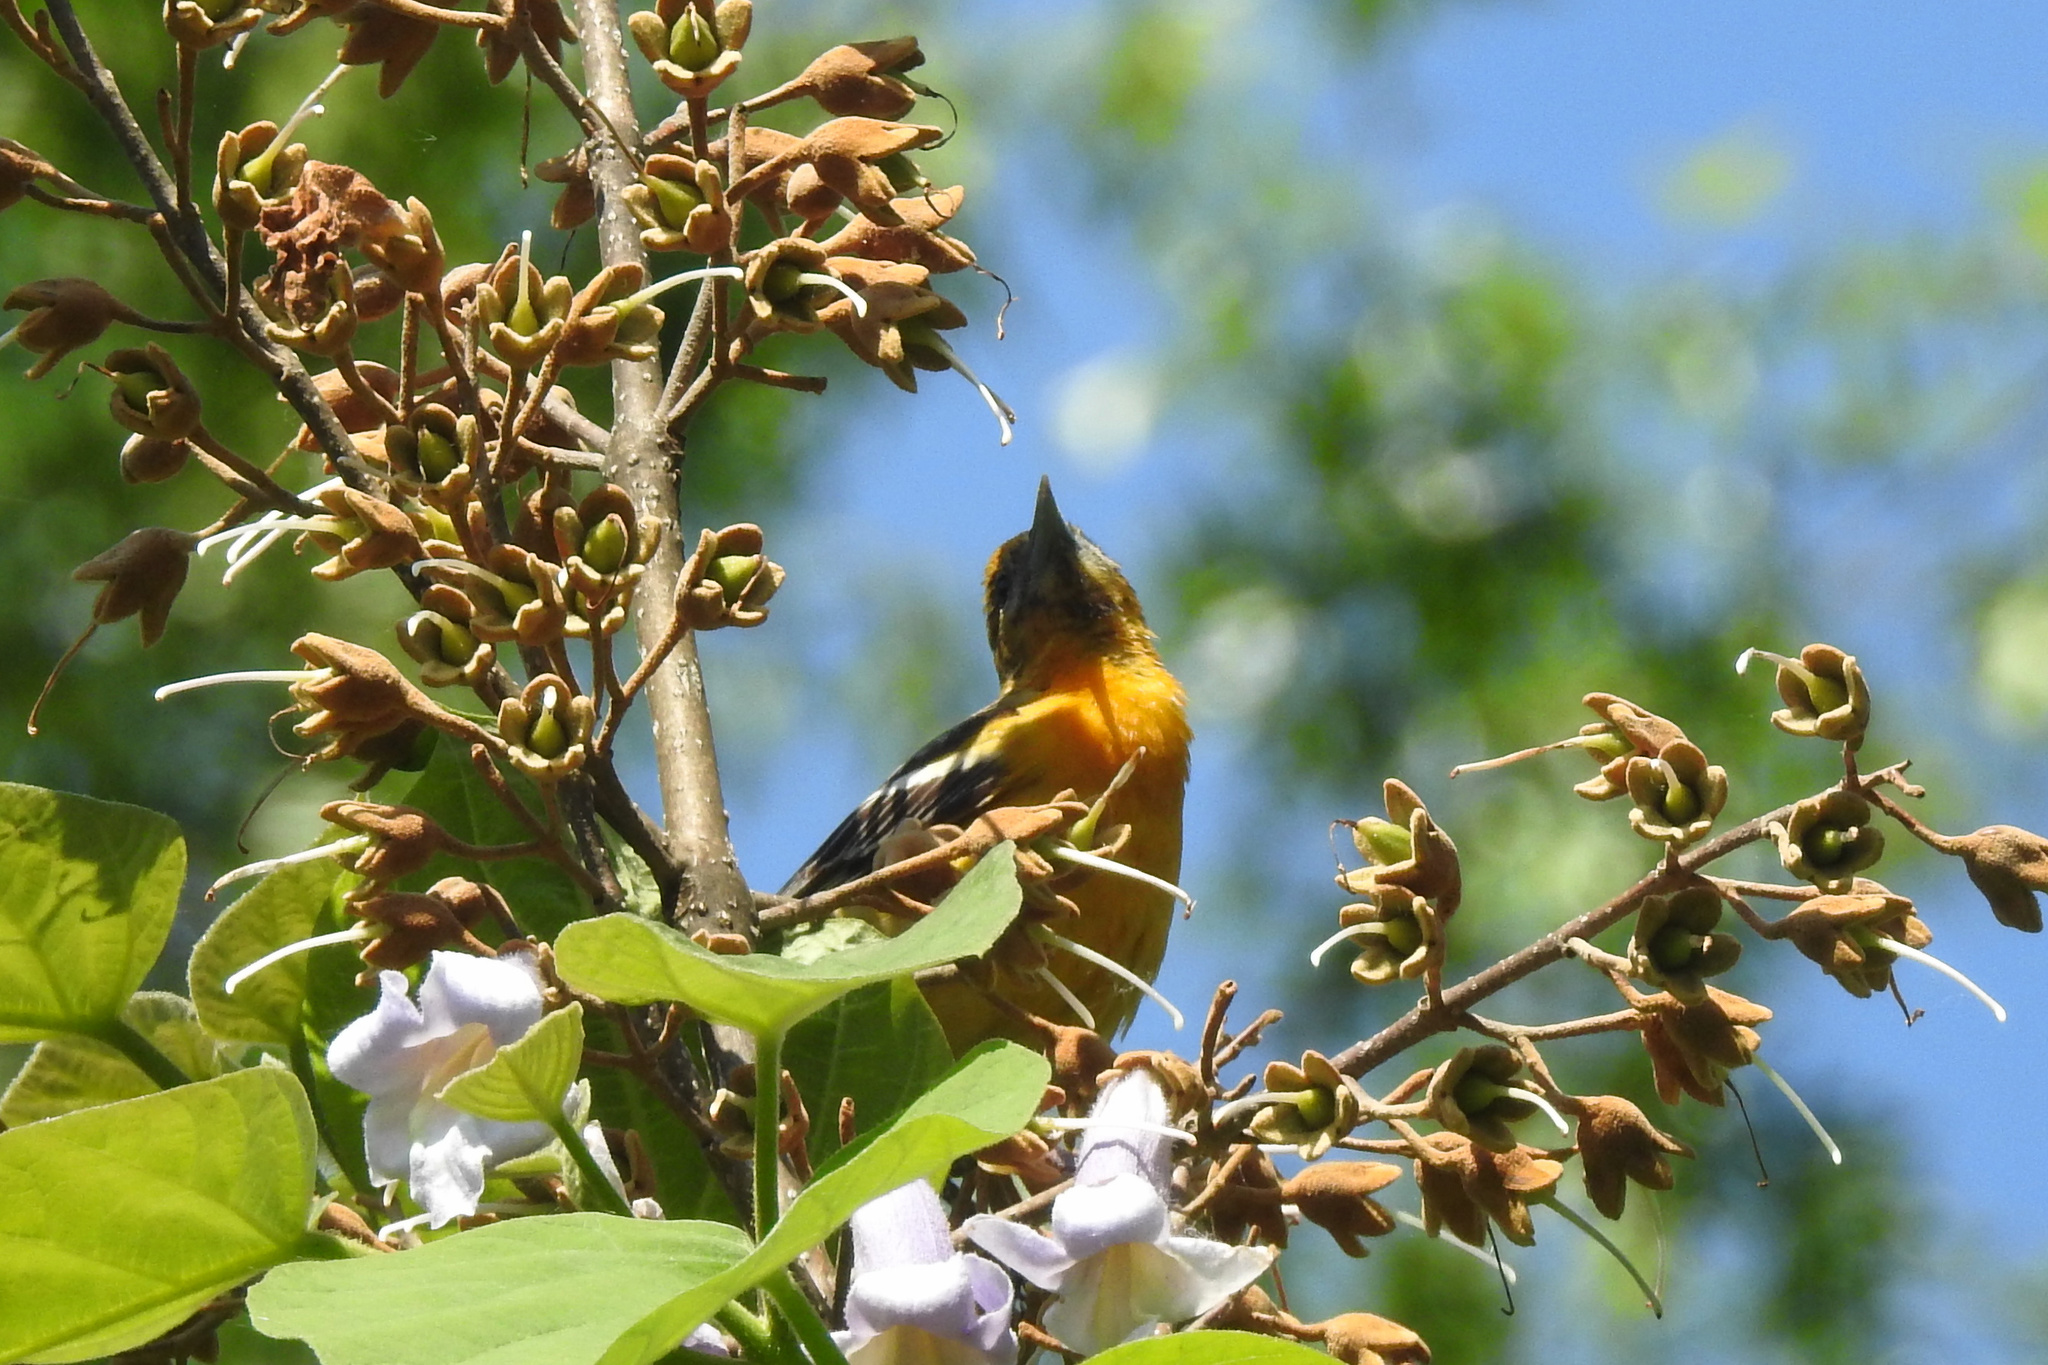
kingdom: Animalia
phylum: Chordata
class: Aves
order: Passeriformes
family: Icteridae
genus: Icterus
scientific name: Icterus galbula
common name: Baltimore oriole
